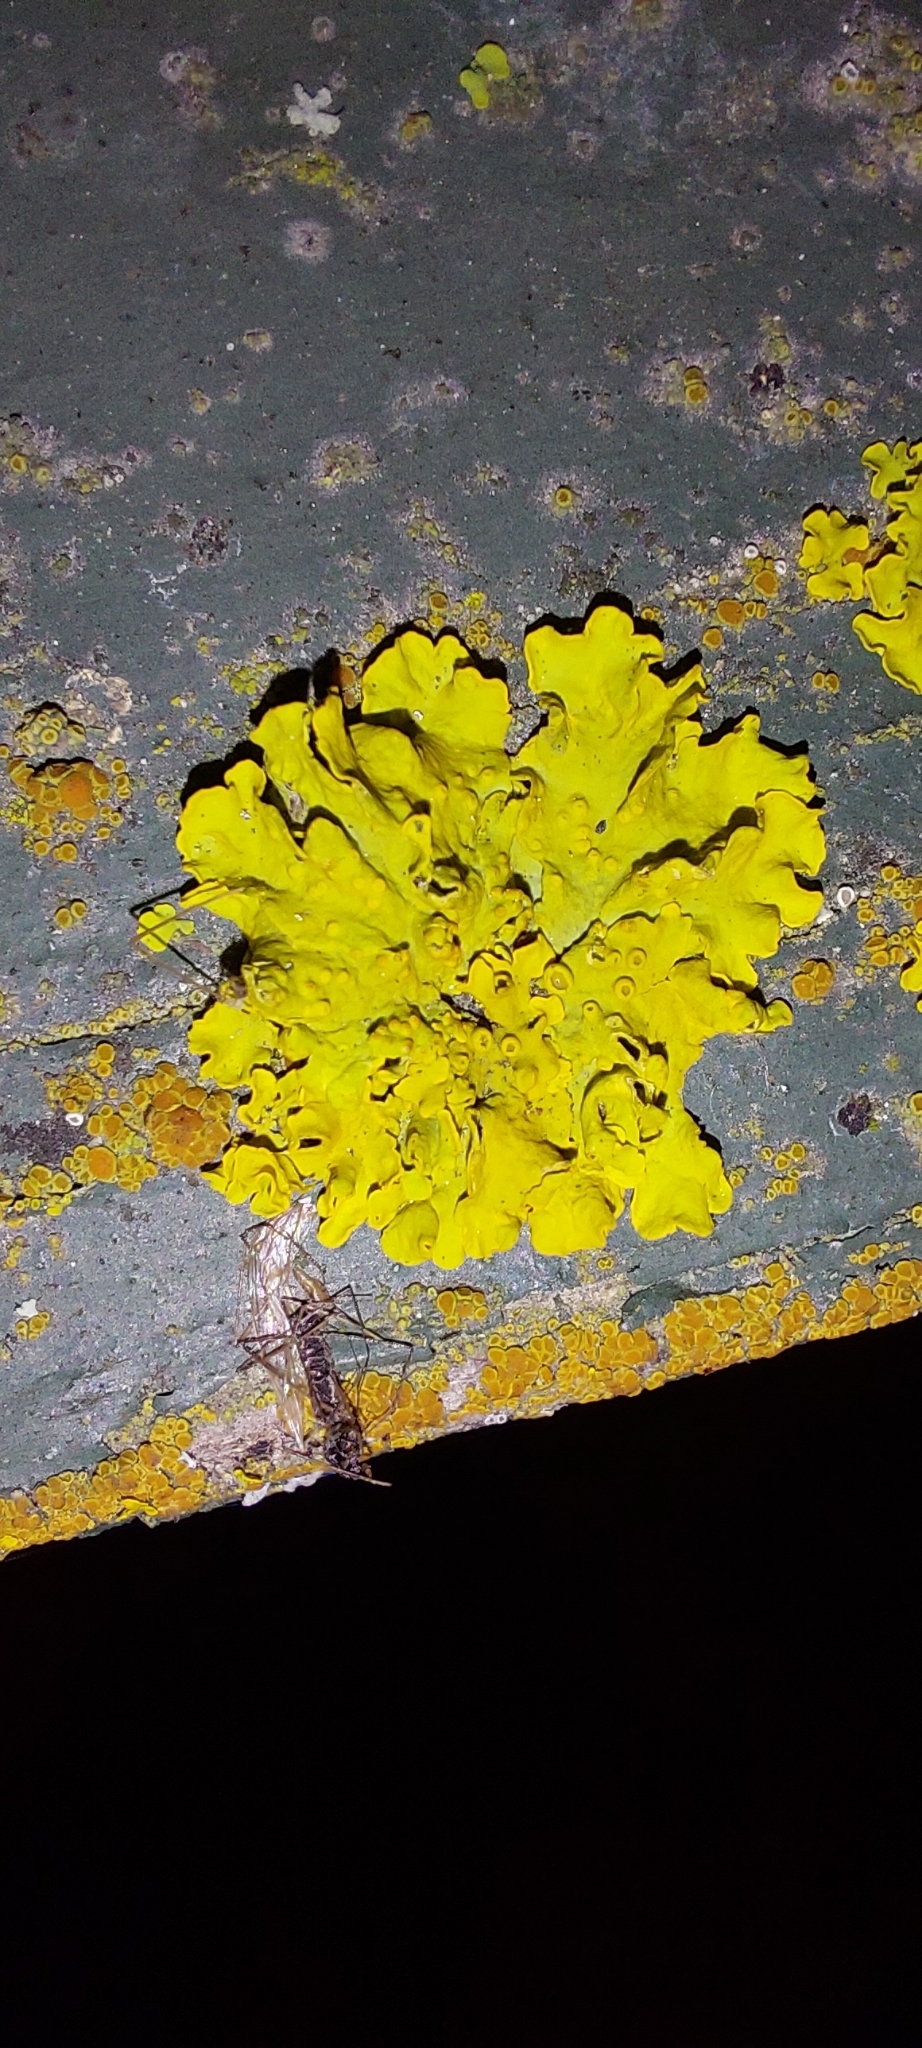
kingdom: Fungi
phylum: Ascomycota
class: Lecanoromycetes
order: Teloschistales
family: Teloschistaceae
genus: Xanthoria
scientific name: Xanthoria parietina
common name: Common orange lichen
